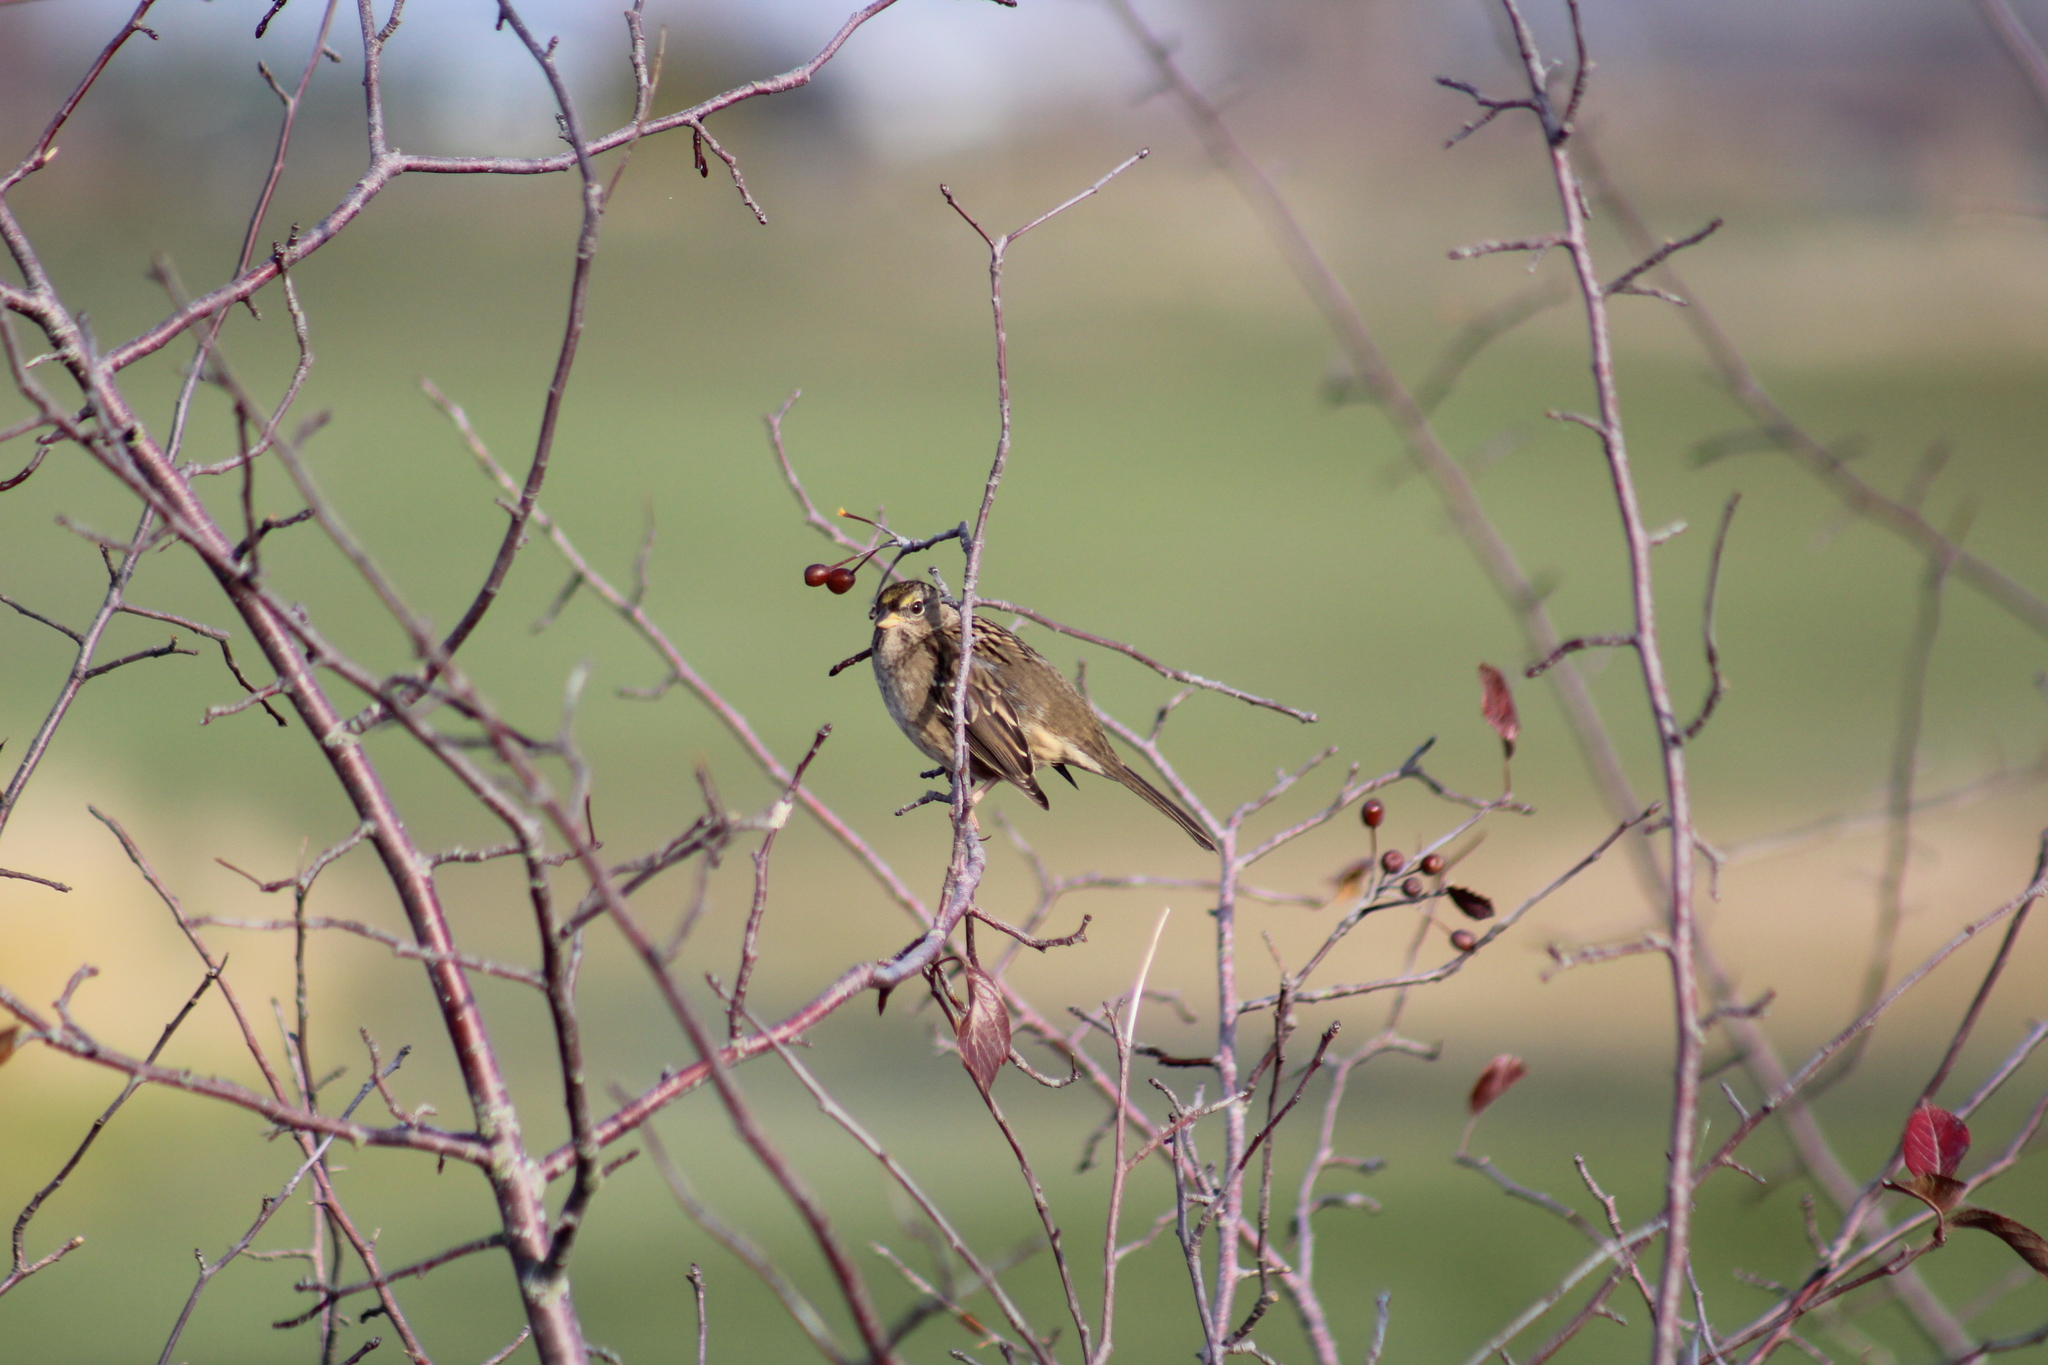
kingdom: Animalia
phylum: Chordata
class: Aves
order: Passeriformes
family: Passerellidae
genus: Zonotrichia
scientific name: Zonotrichia atricapilla
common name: Golden-crowned sparrow
